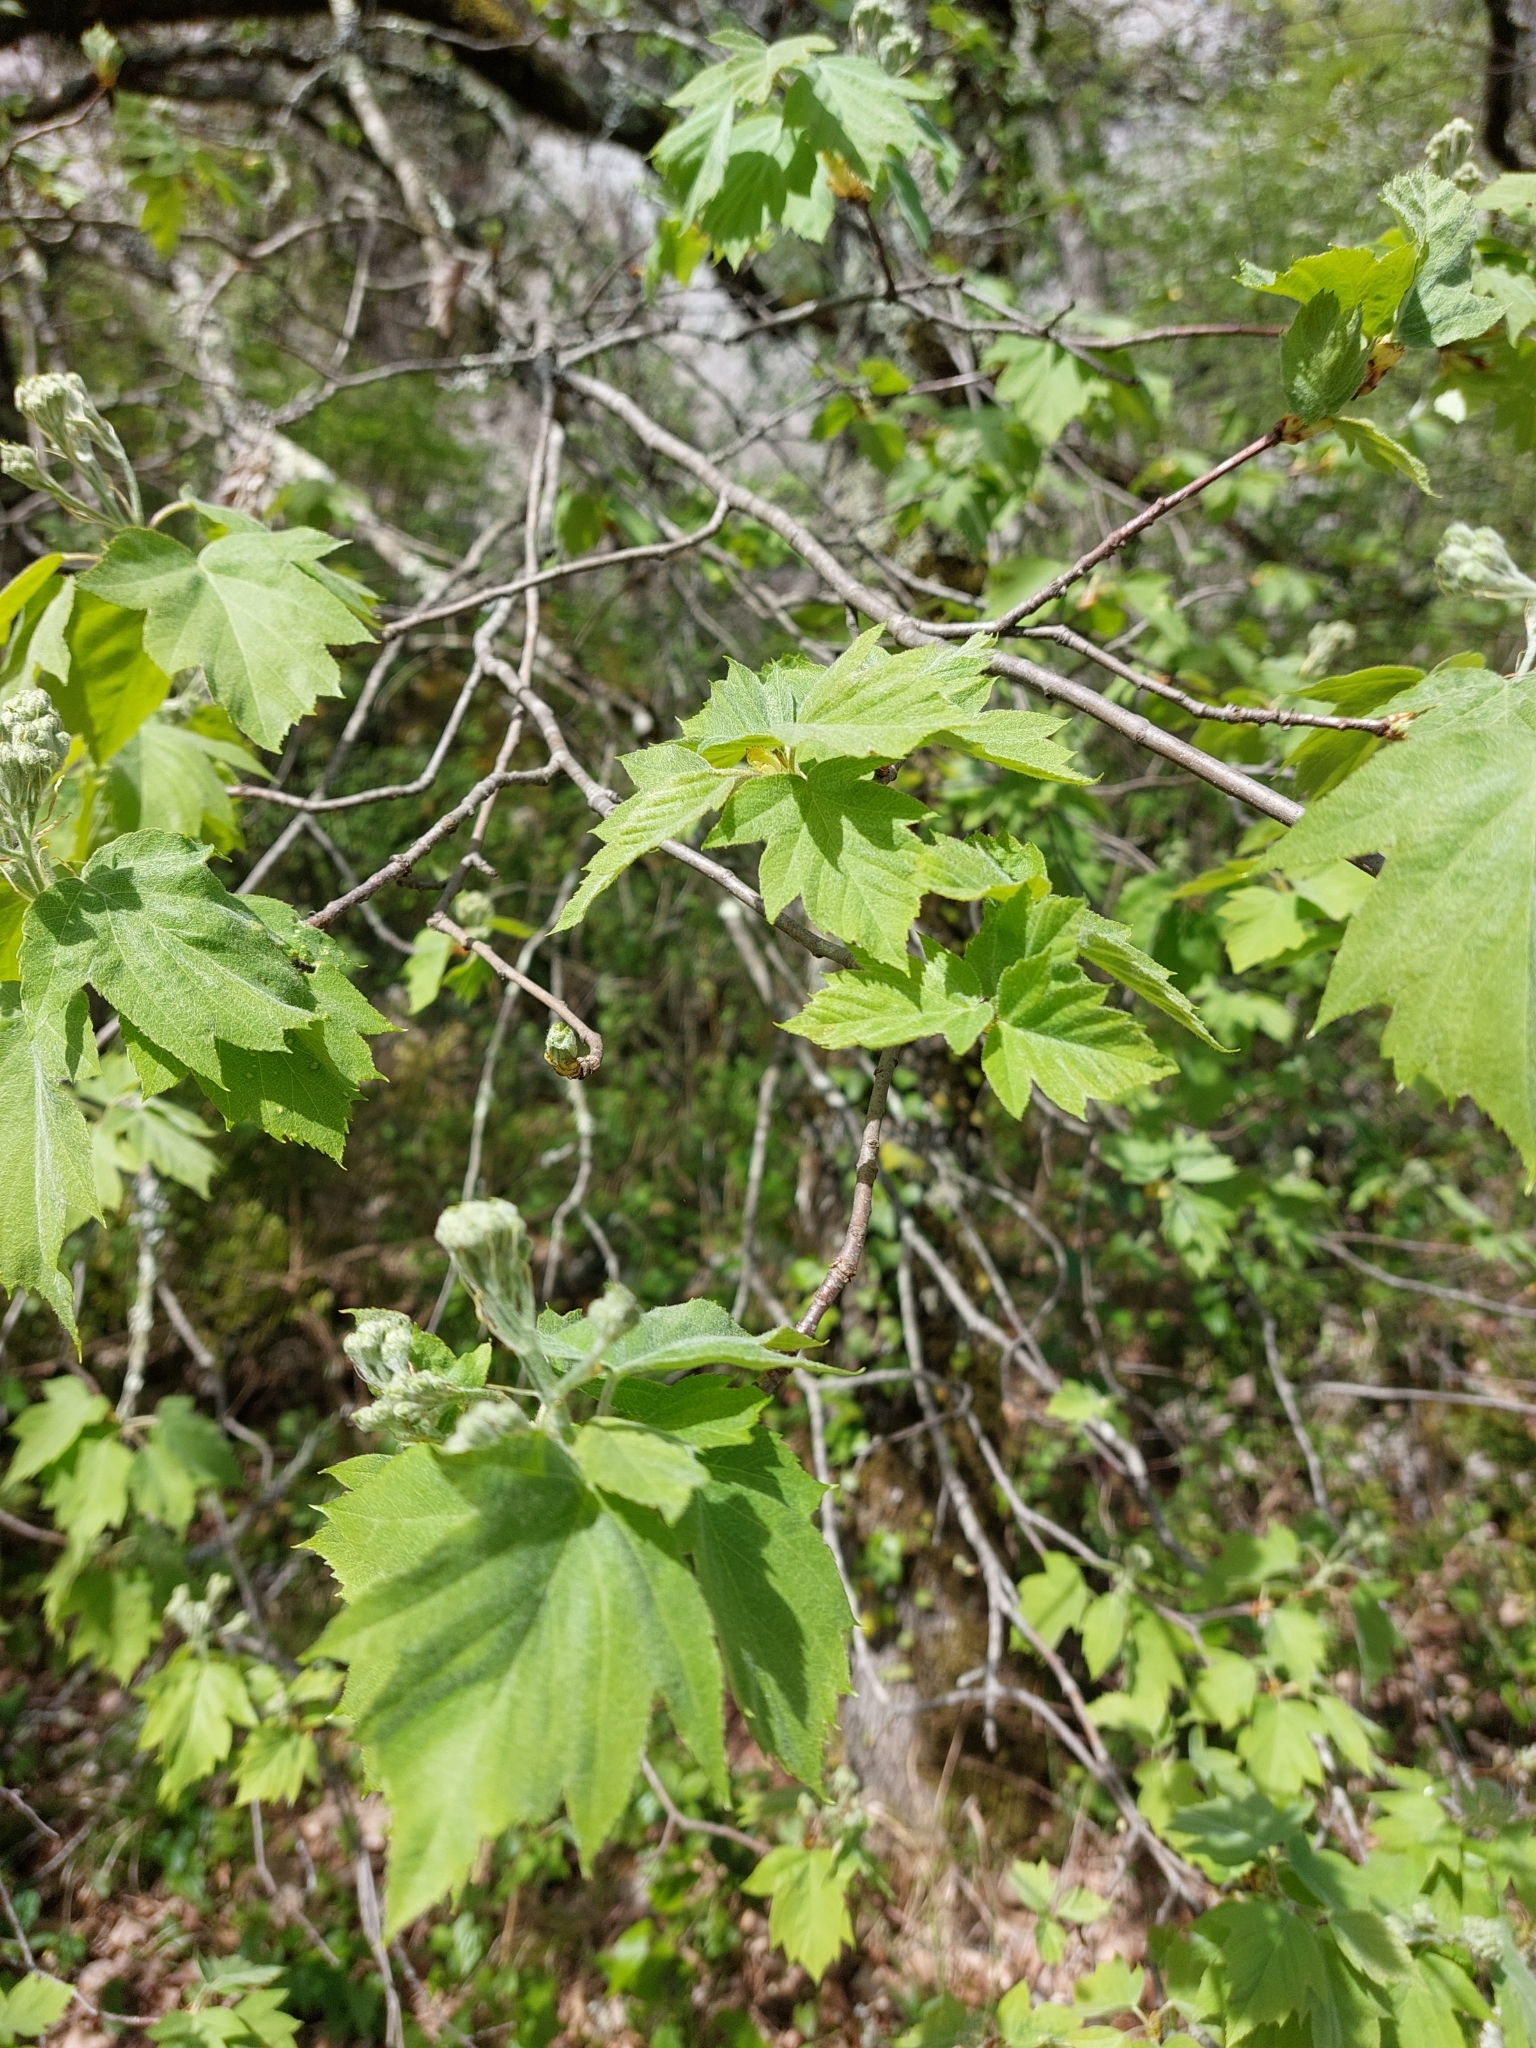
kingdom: Plantae
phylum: Tracheophyta
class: Magnoliopsida
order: Rosales
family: Rosaceae
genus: Torminalis
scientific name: Torminalis glaberrima
